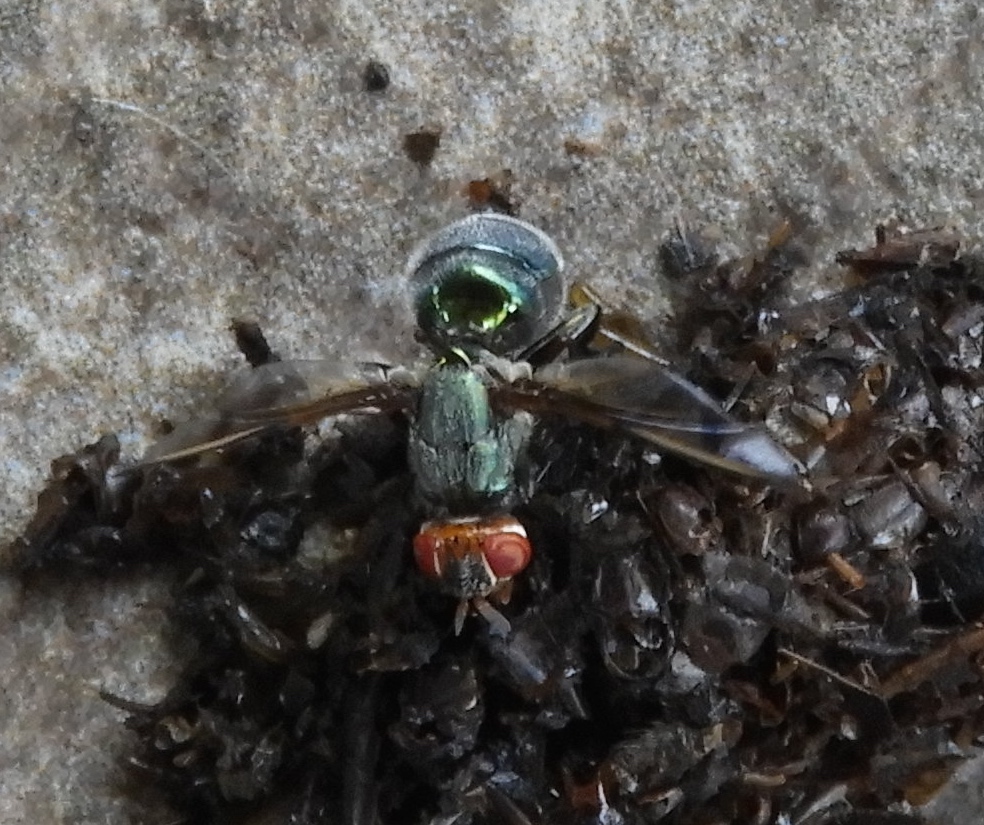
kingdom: Animalia
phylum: Arthropoda
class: Insecta
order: Diptera
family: Platystomatidae
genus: Senopterina
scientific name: Senopterina
